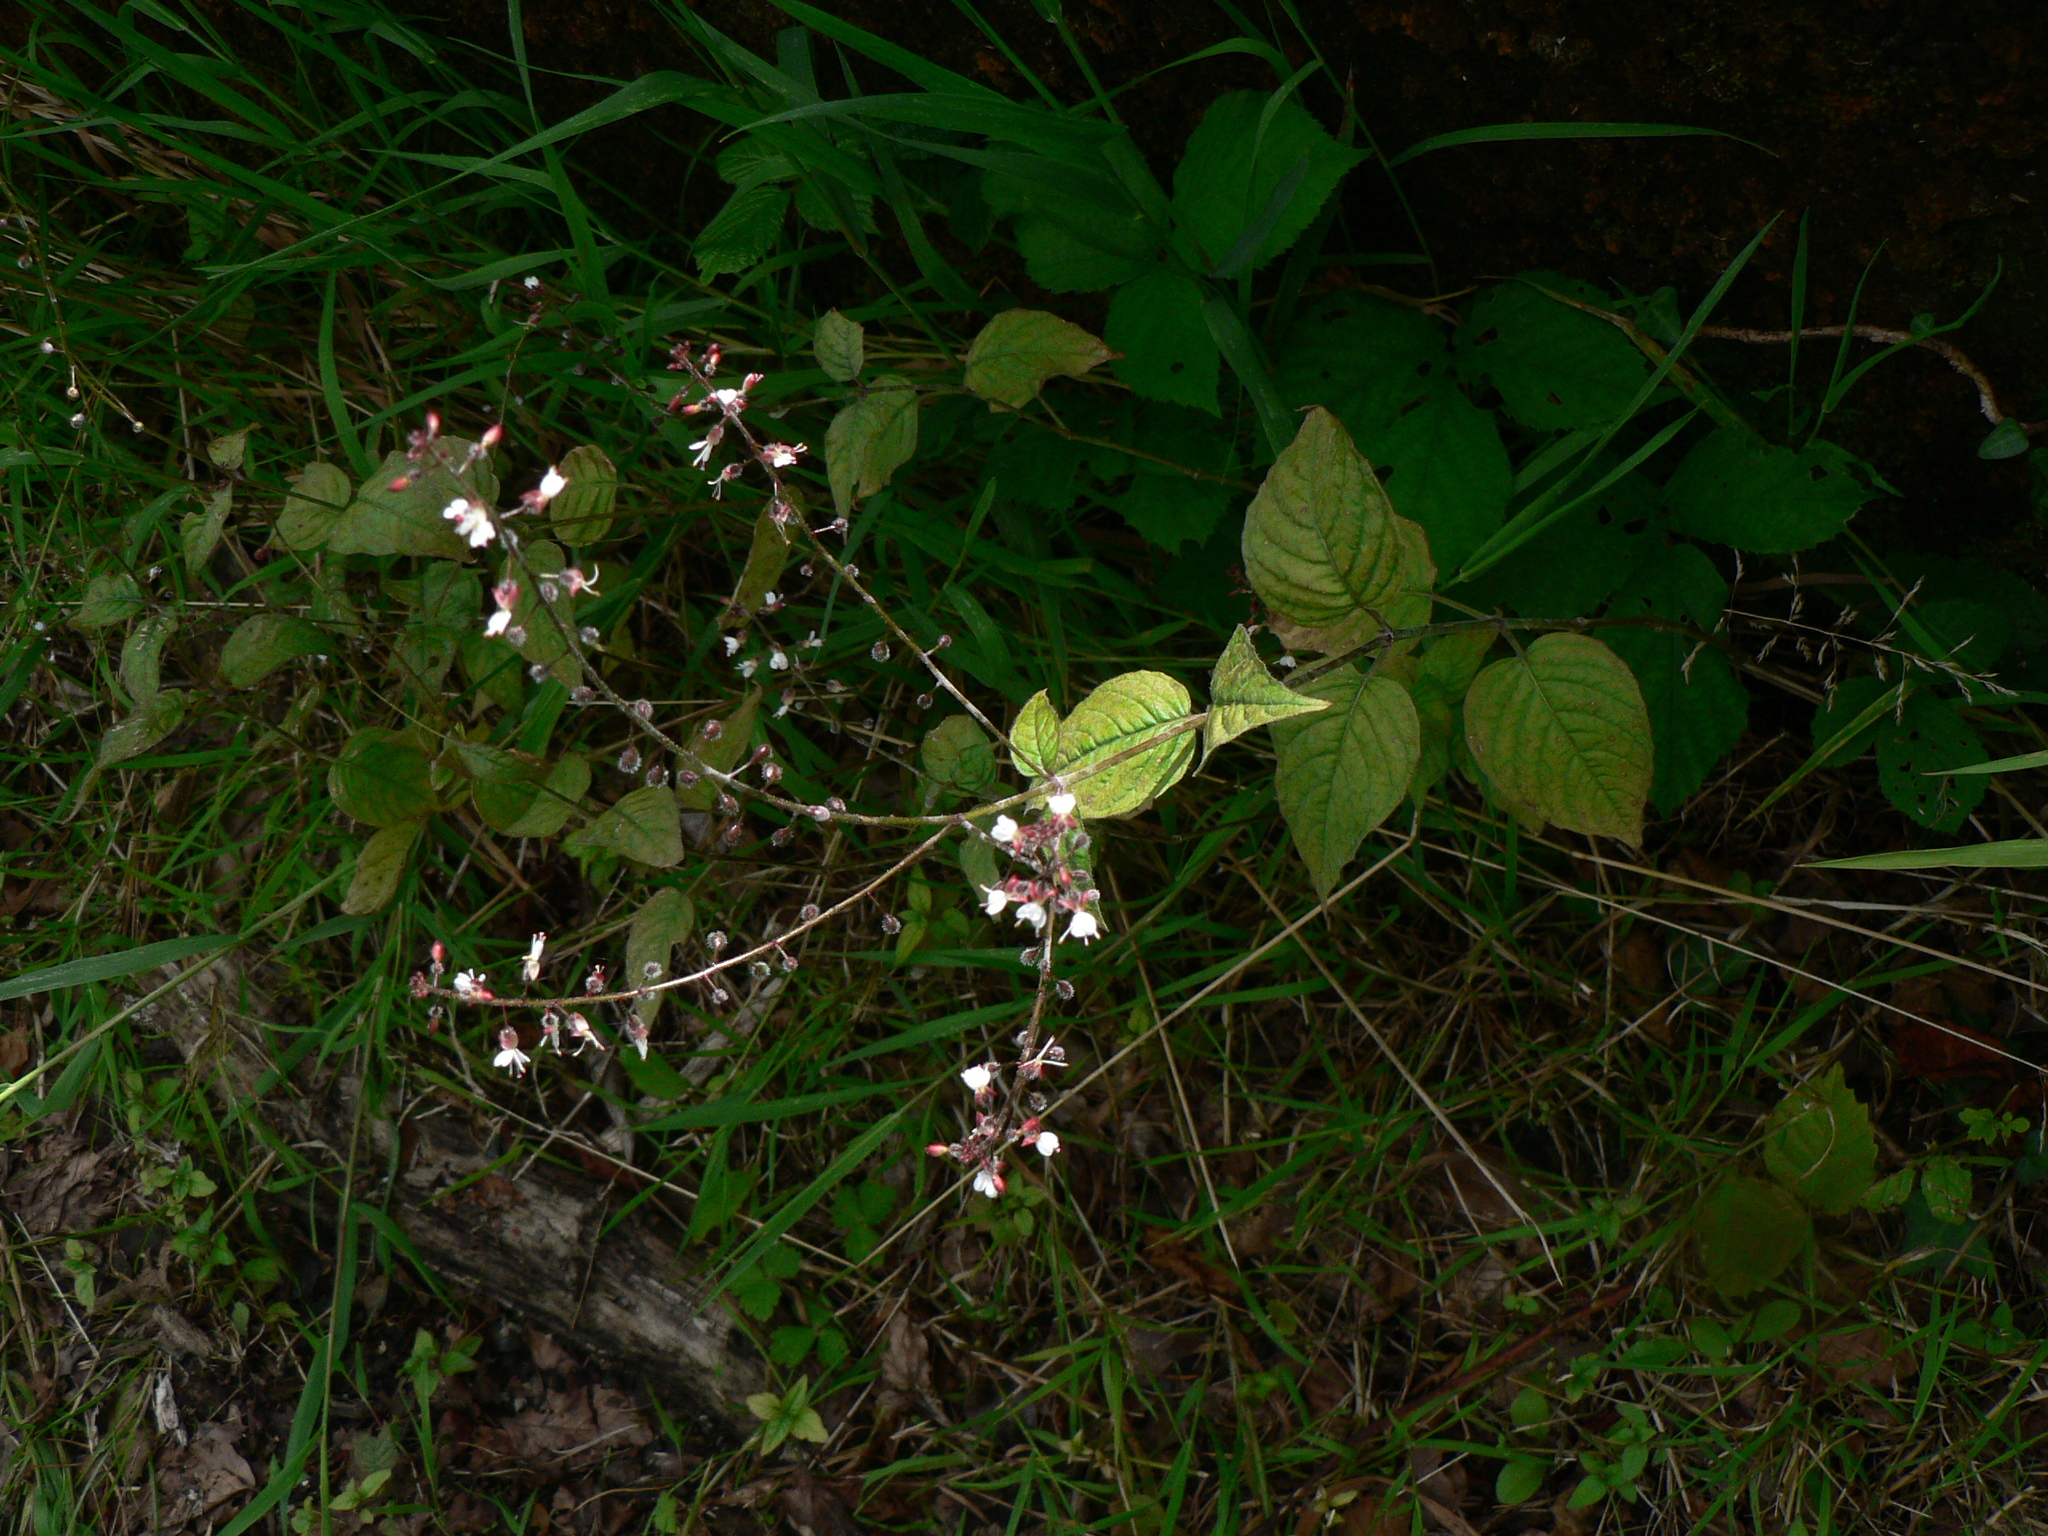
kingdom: Plantae
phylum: Tracheophyta
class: Magnoliopsida
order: Myrtales
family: Onagraceae
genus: Circaea
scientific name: Circaea lutetiana
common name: Enchanter's-nightshade
